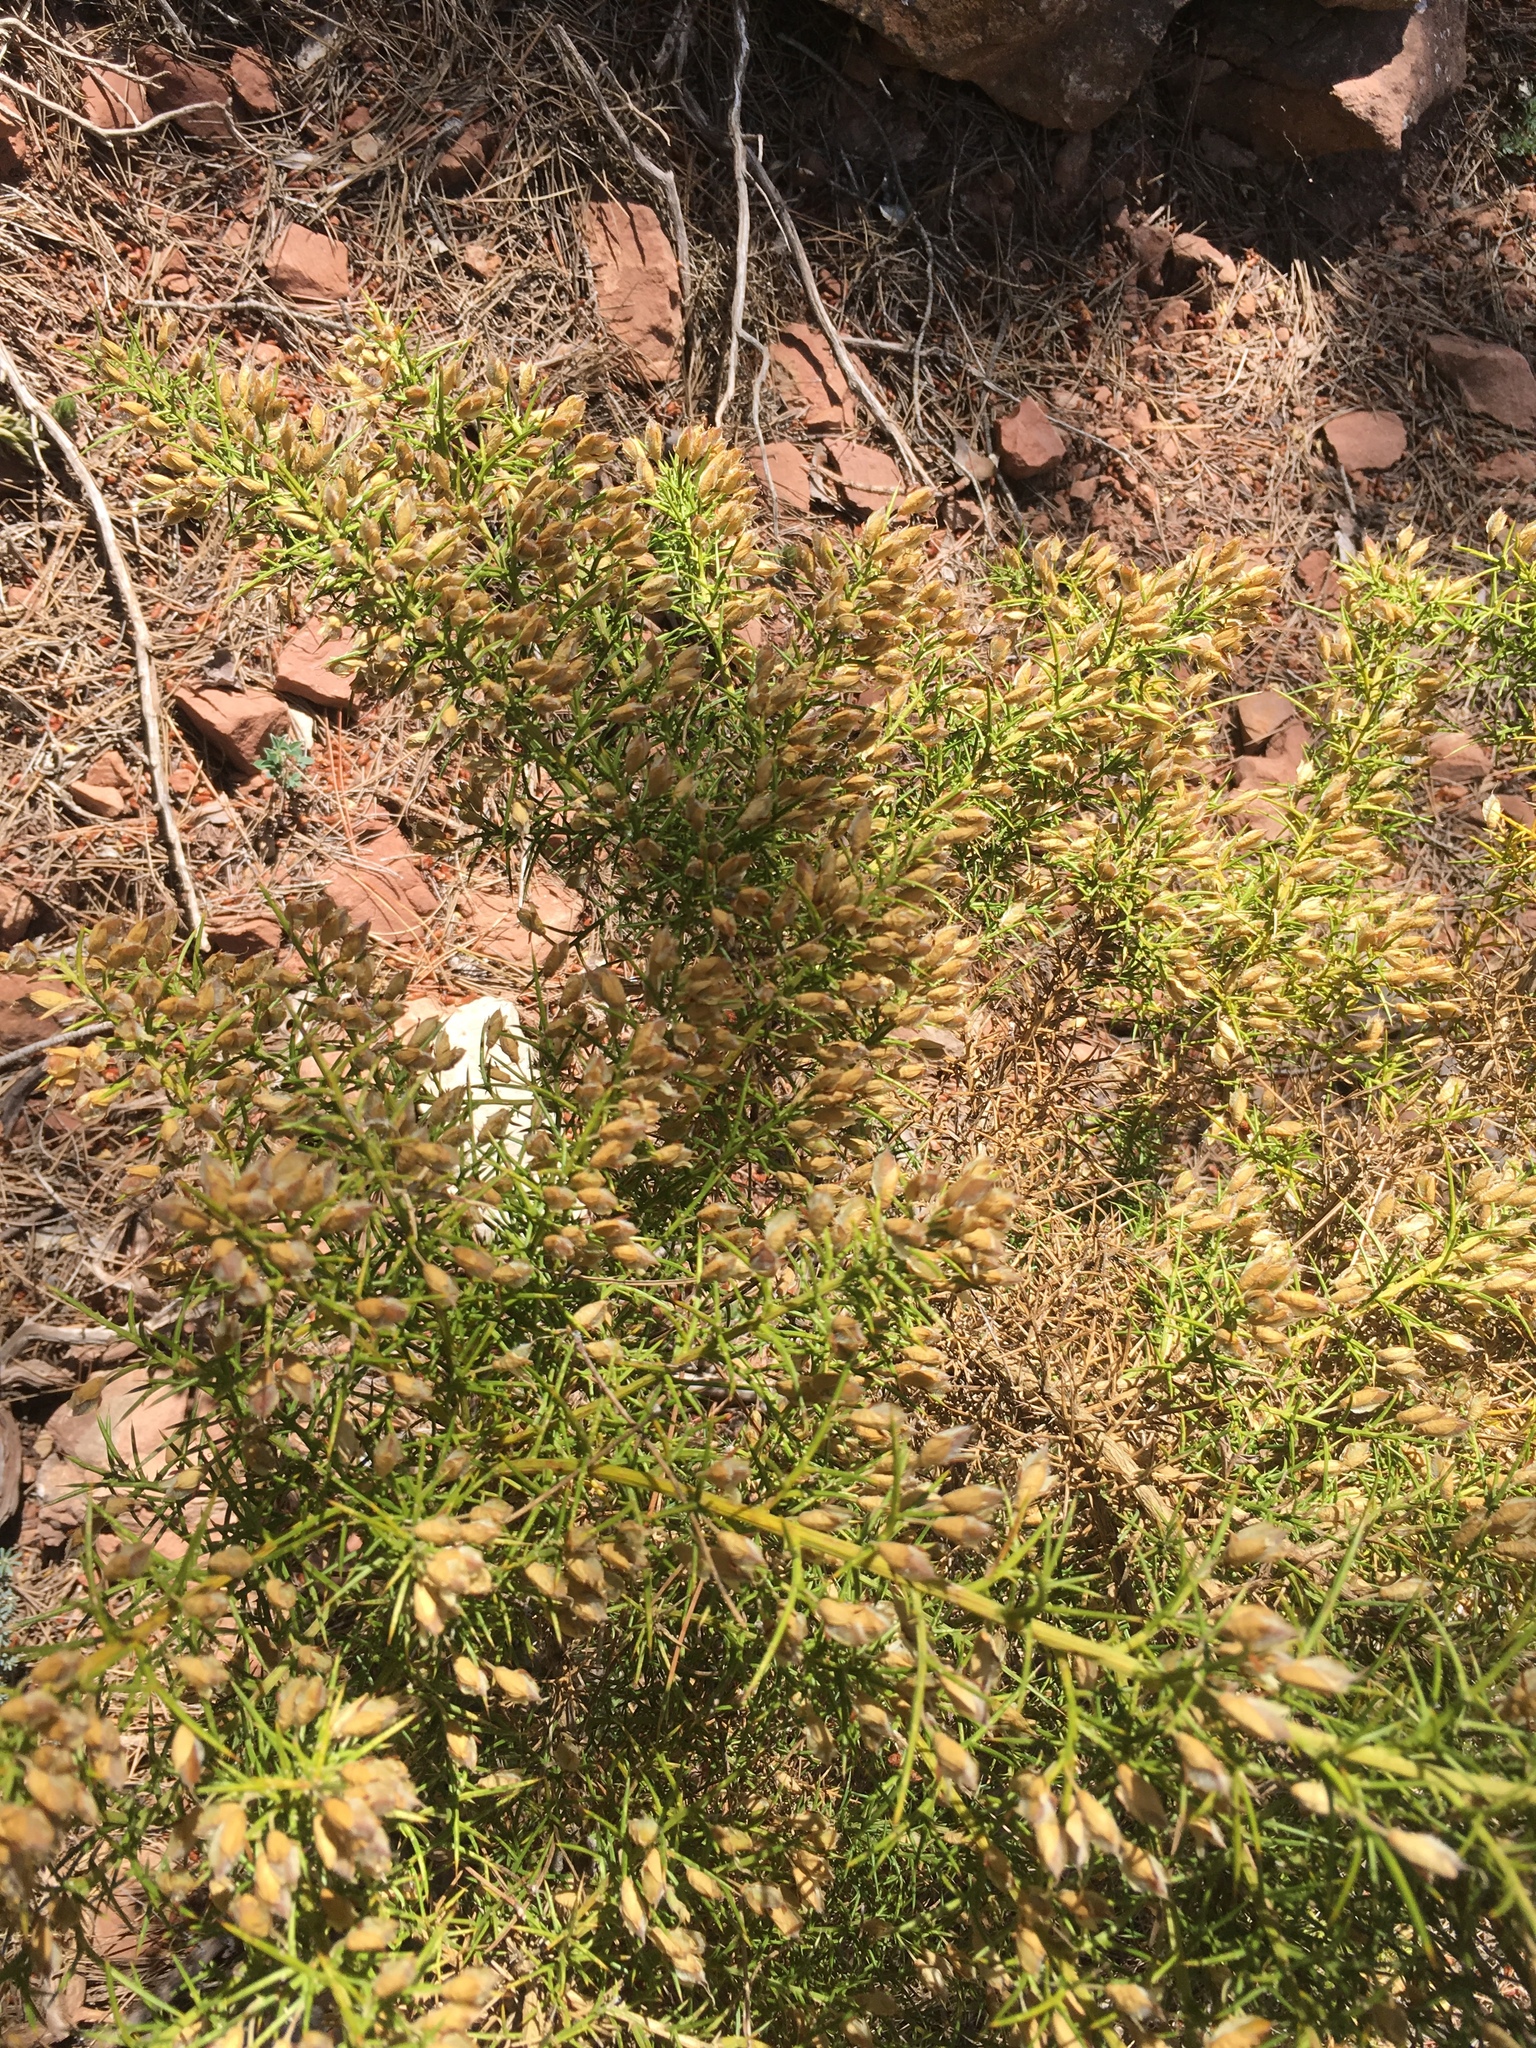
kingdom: Plantae
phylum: Tracheophyta
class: Magnoliopsida
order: Fabales
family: Fabaceae
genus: Ulex
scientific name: Ulex parviflorus
